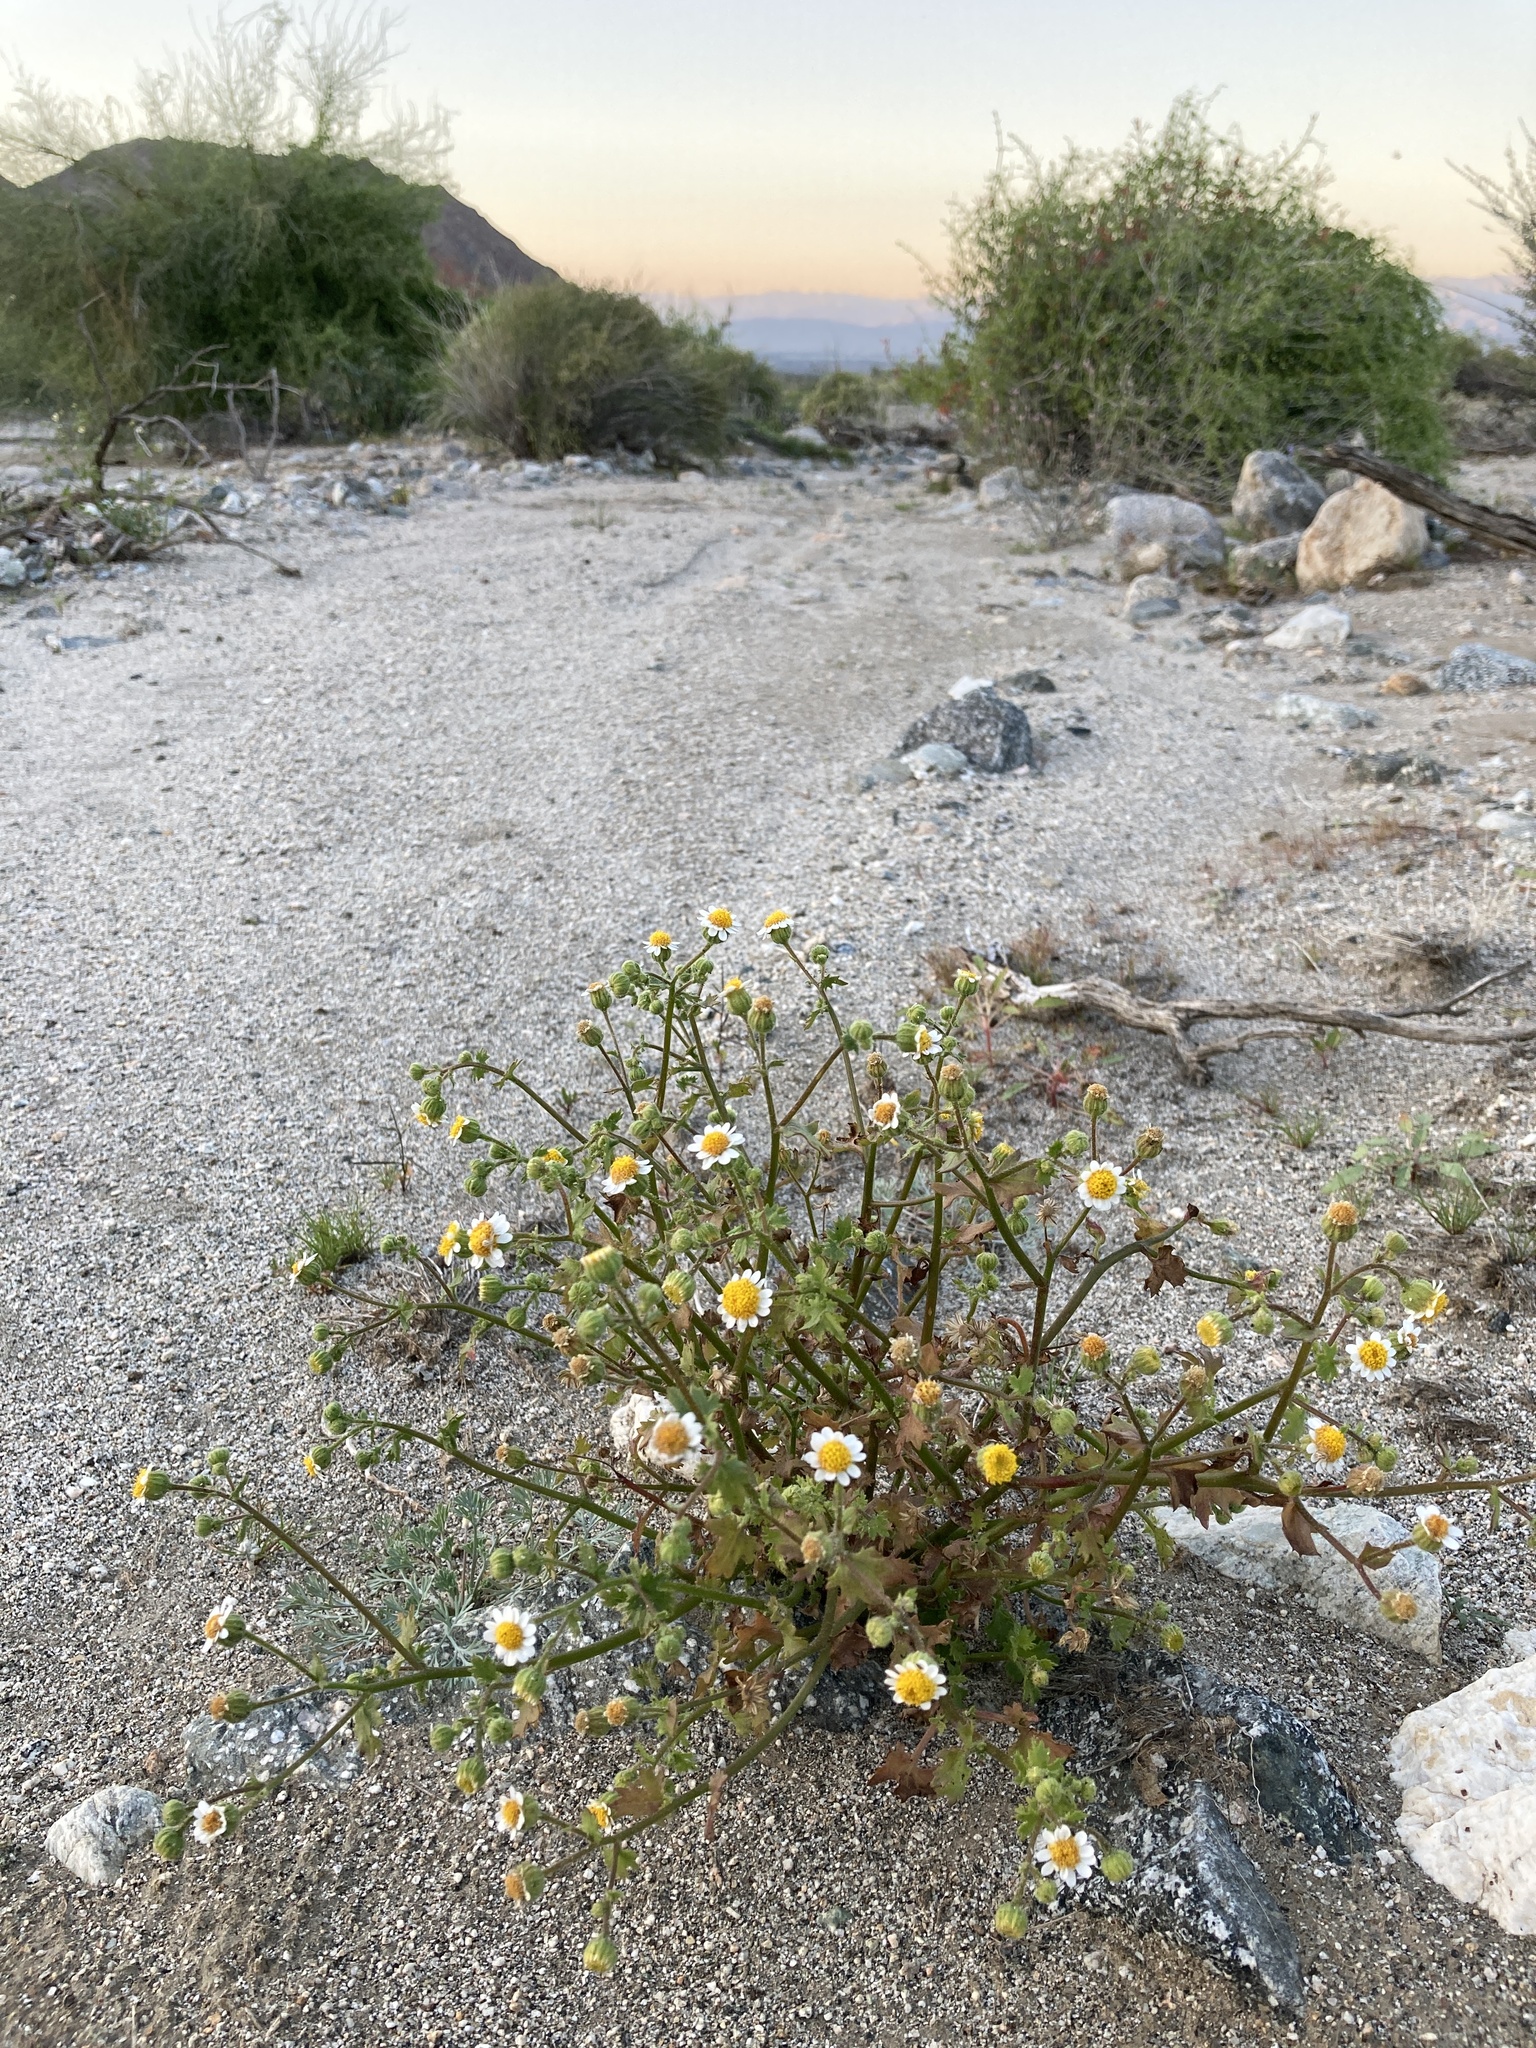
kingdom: Plantae
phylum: Tracheophyta
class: Magnoliopsida
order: Asterales
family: Asteraceae
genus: Laphamia
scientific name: Laphamia emoryi
